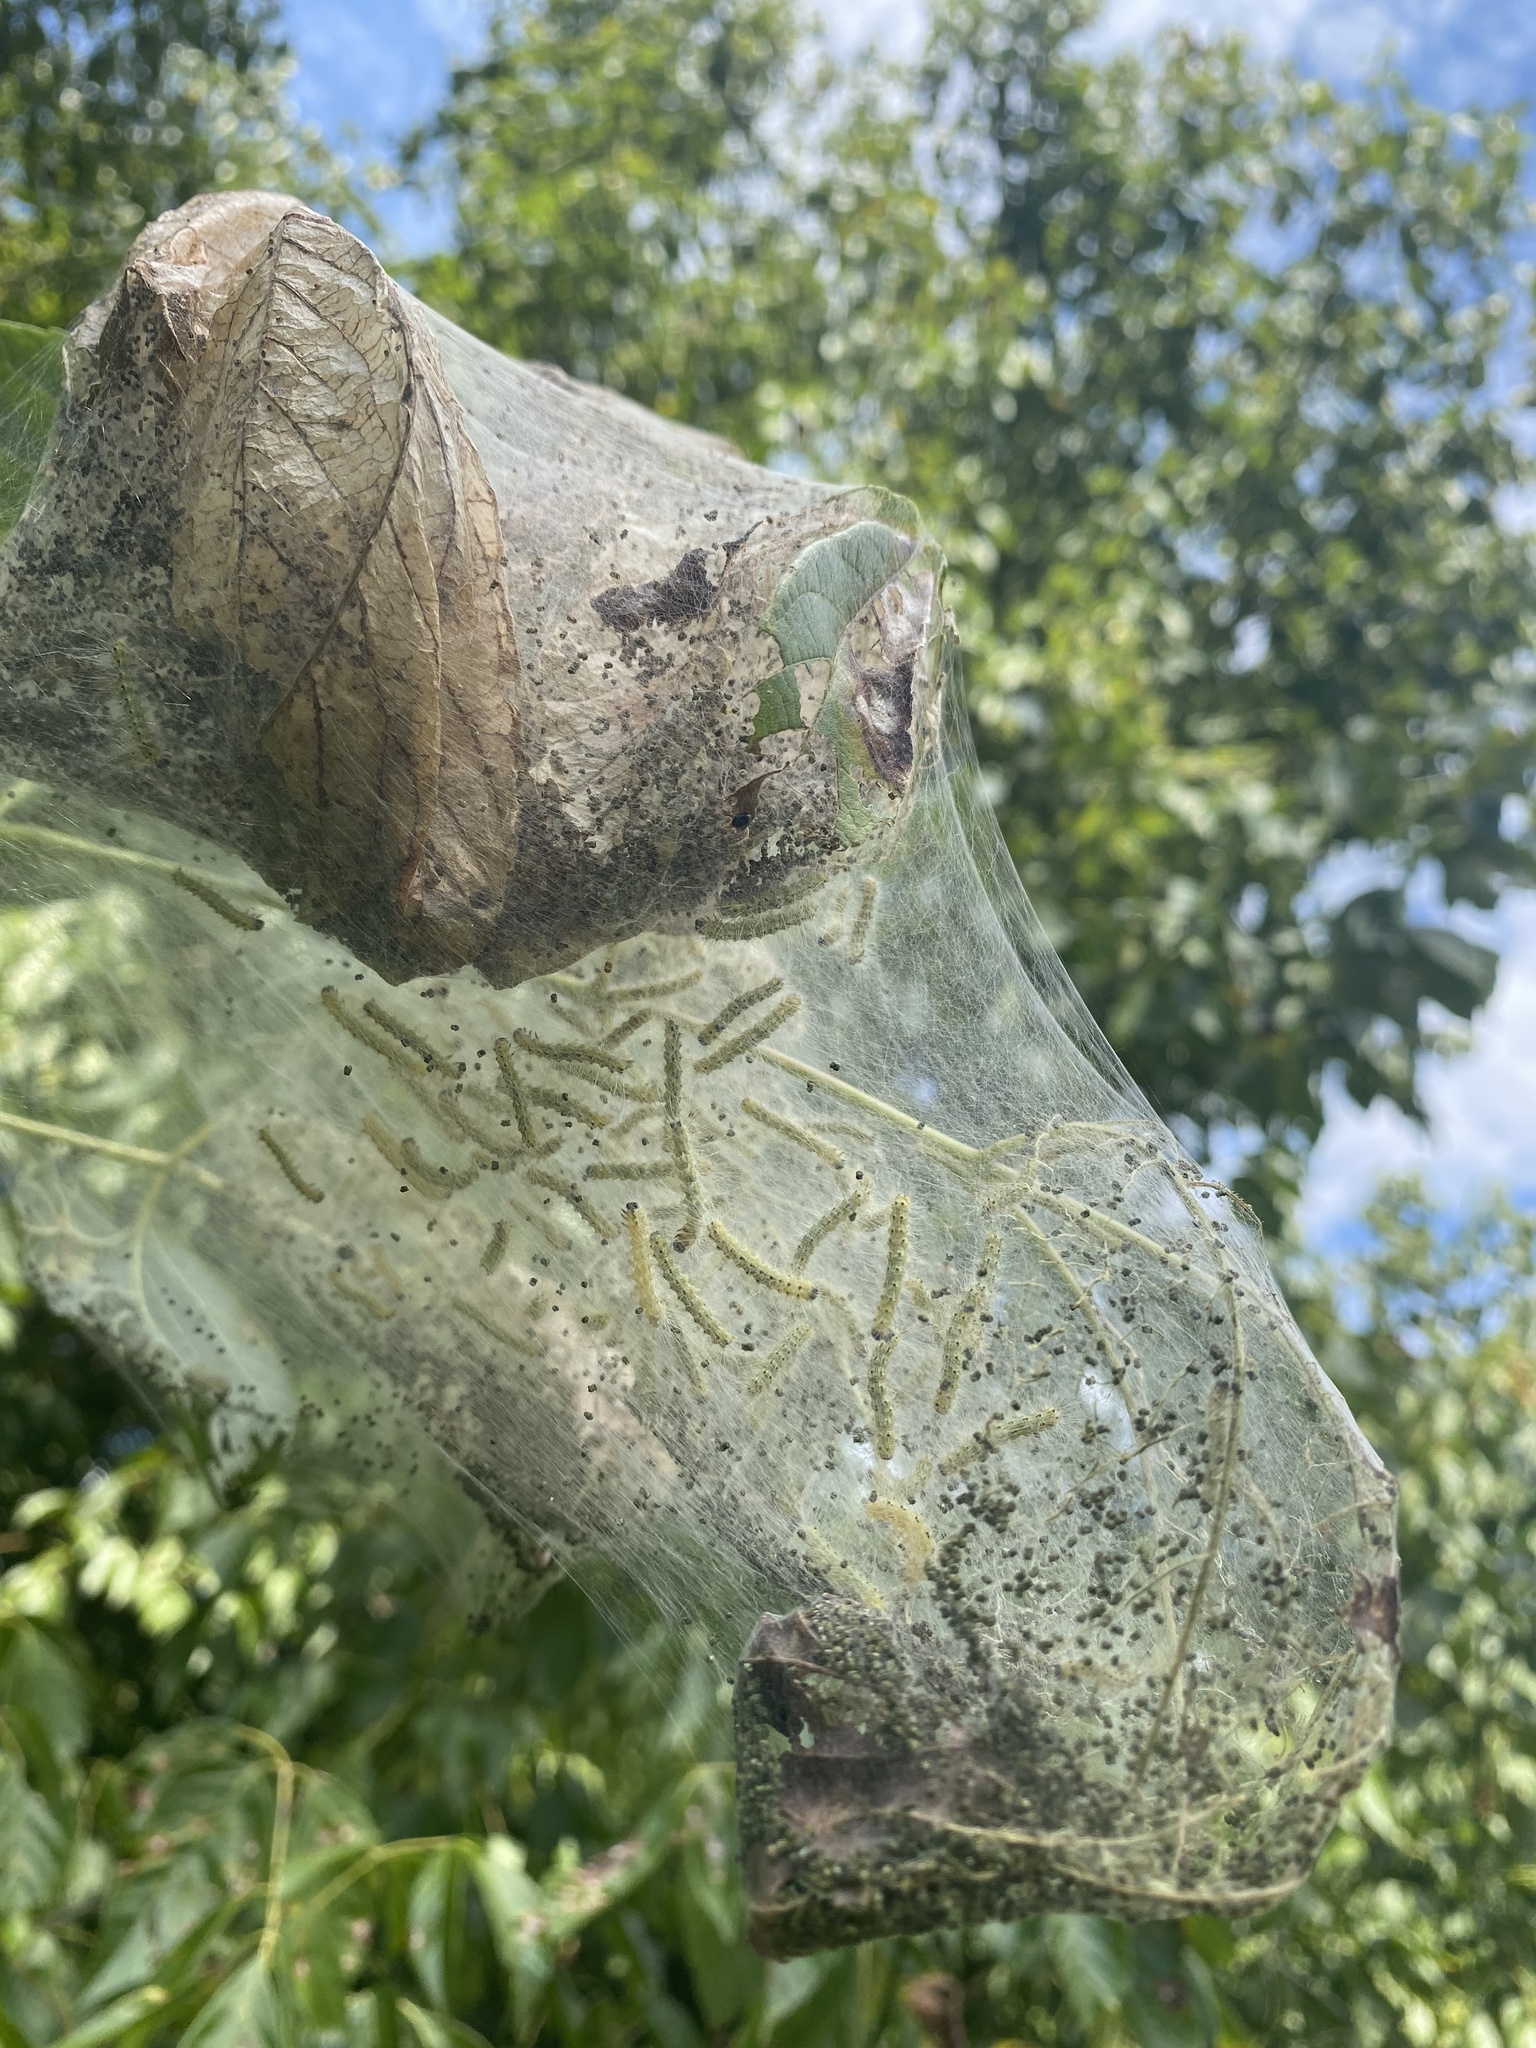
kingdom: Animalia
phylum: Arthropoda
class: Insecta
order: Lepidoptera
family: Erebidae
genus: Hyphantria
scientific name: Hyphantria cunea
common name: American white moth
